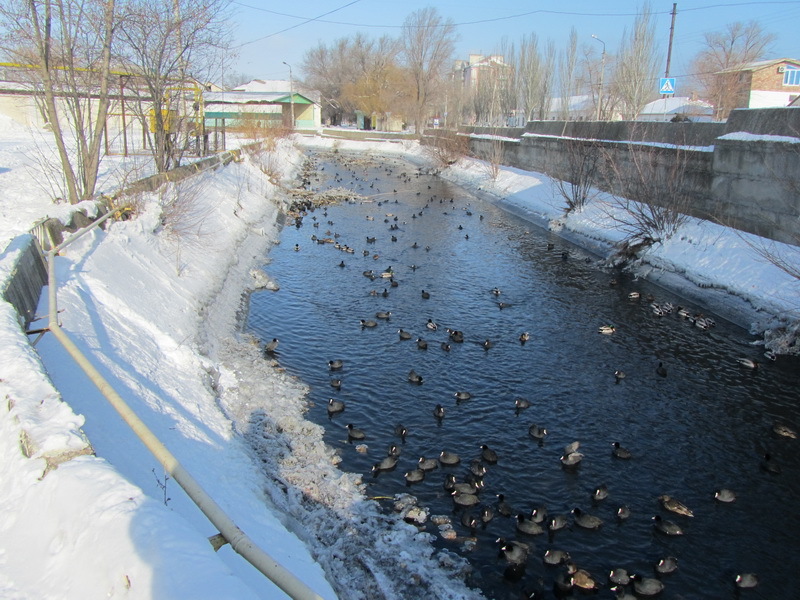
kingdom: Animalia
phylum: Chordata
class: Aves
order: Gruiformes
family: Rallidae
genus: Fulica
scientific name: Fulica atra
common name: Eurasian coot
